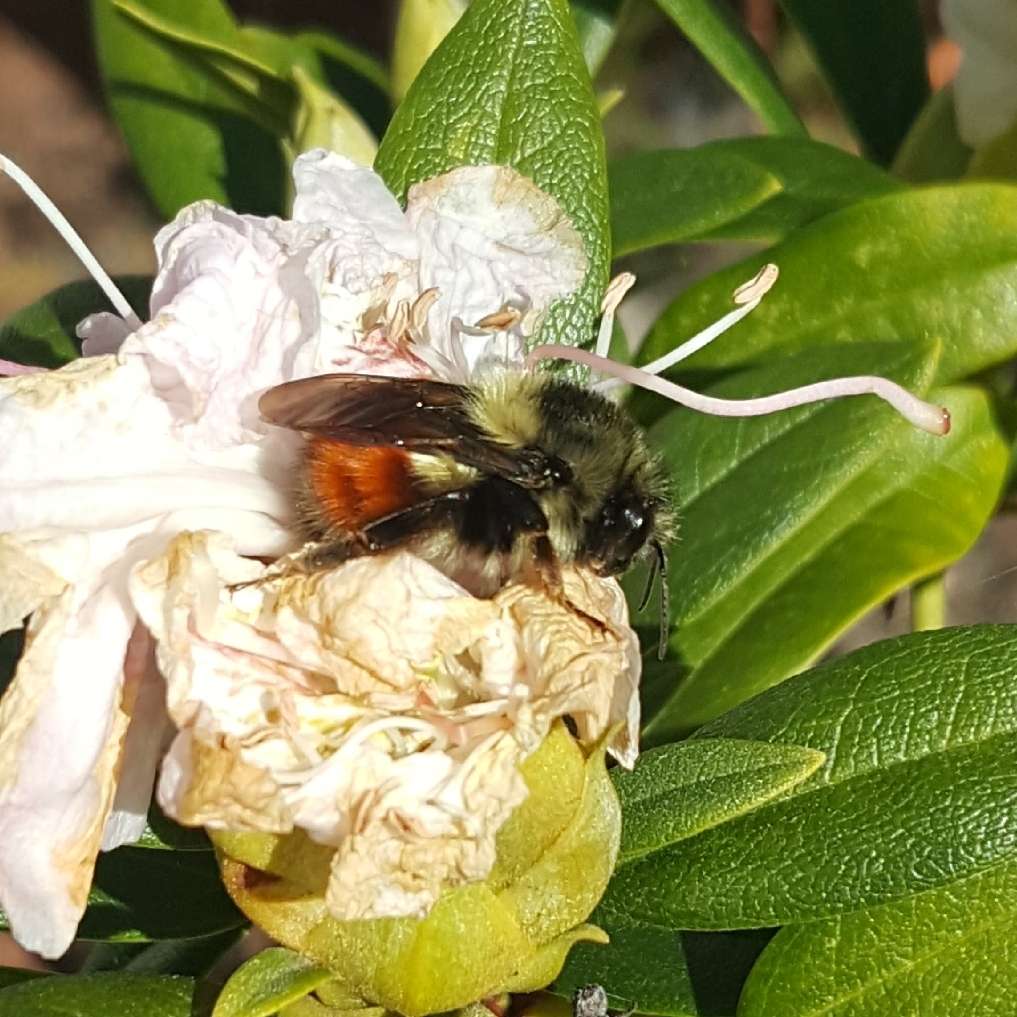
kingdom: Animalia
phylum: Arthropoda
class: Insecta
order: Hymenoptera
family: Apidae
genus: Bombus
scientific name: Bombus melanopygus
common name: Black tail bumble bee
